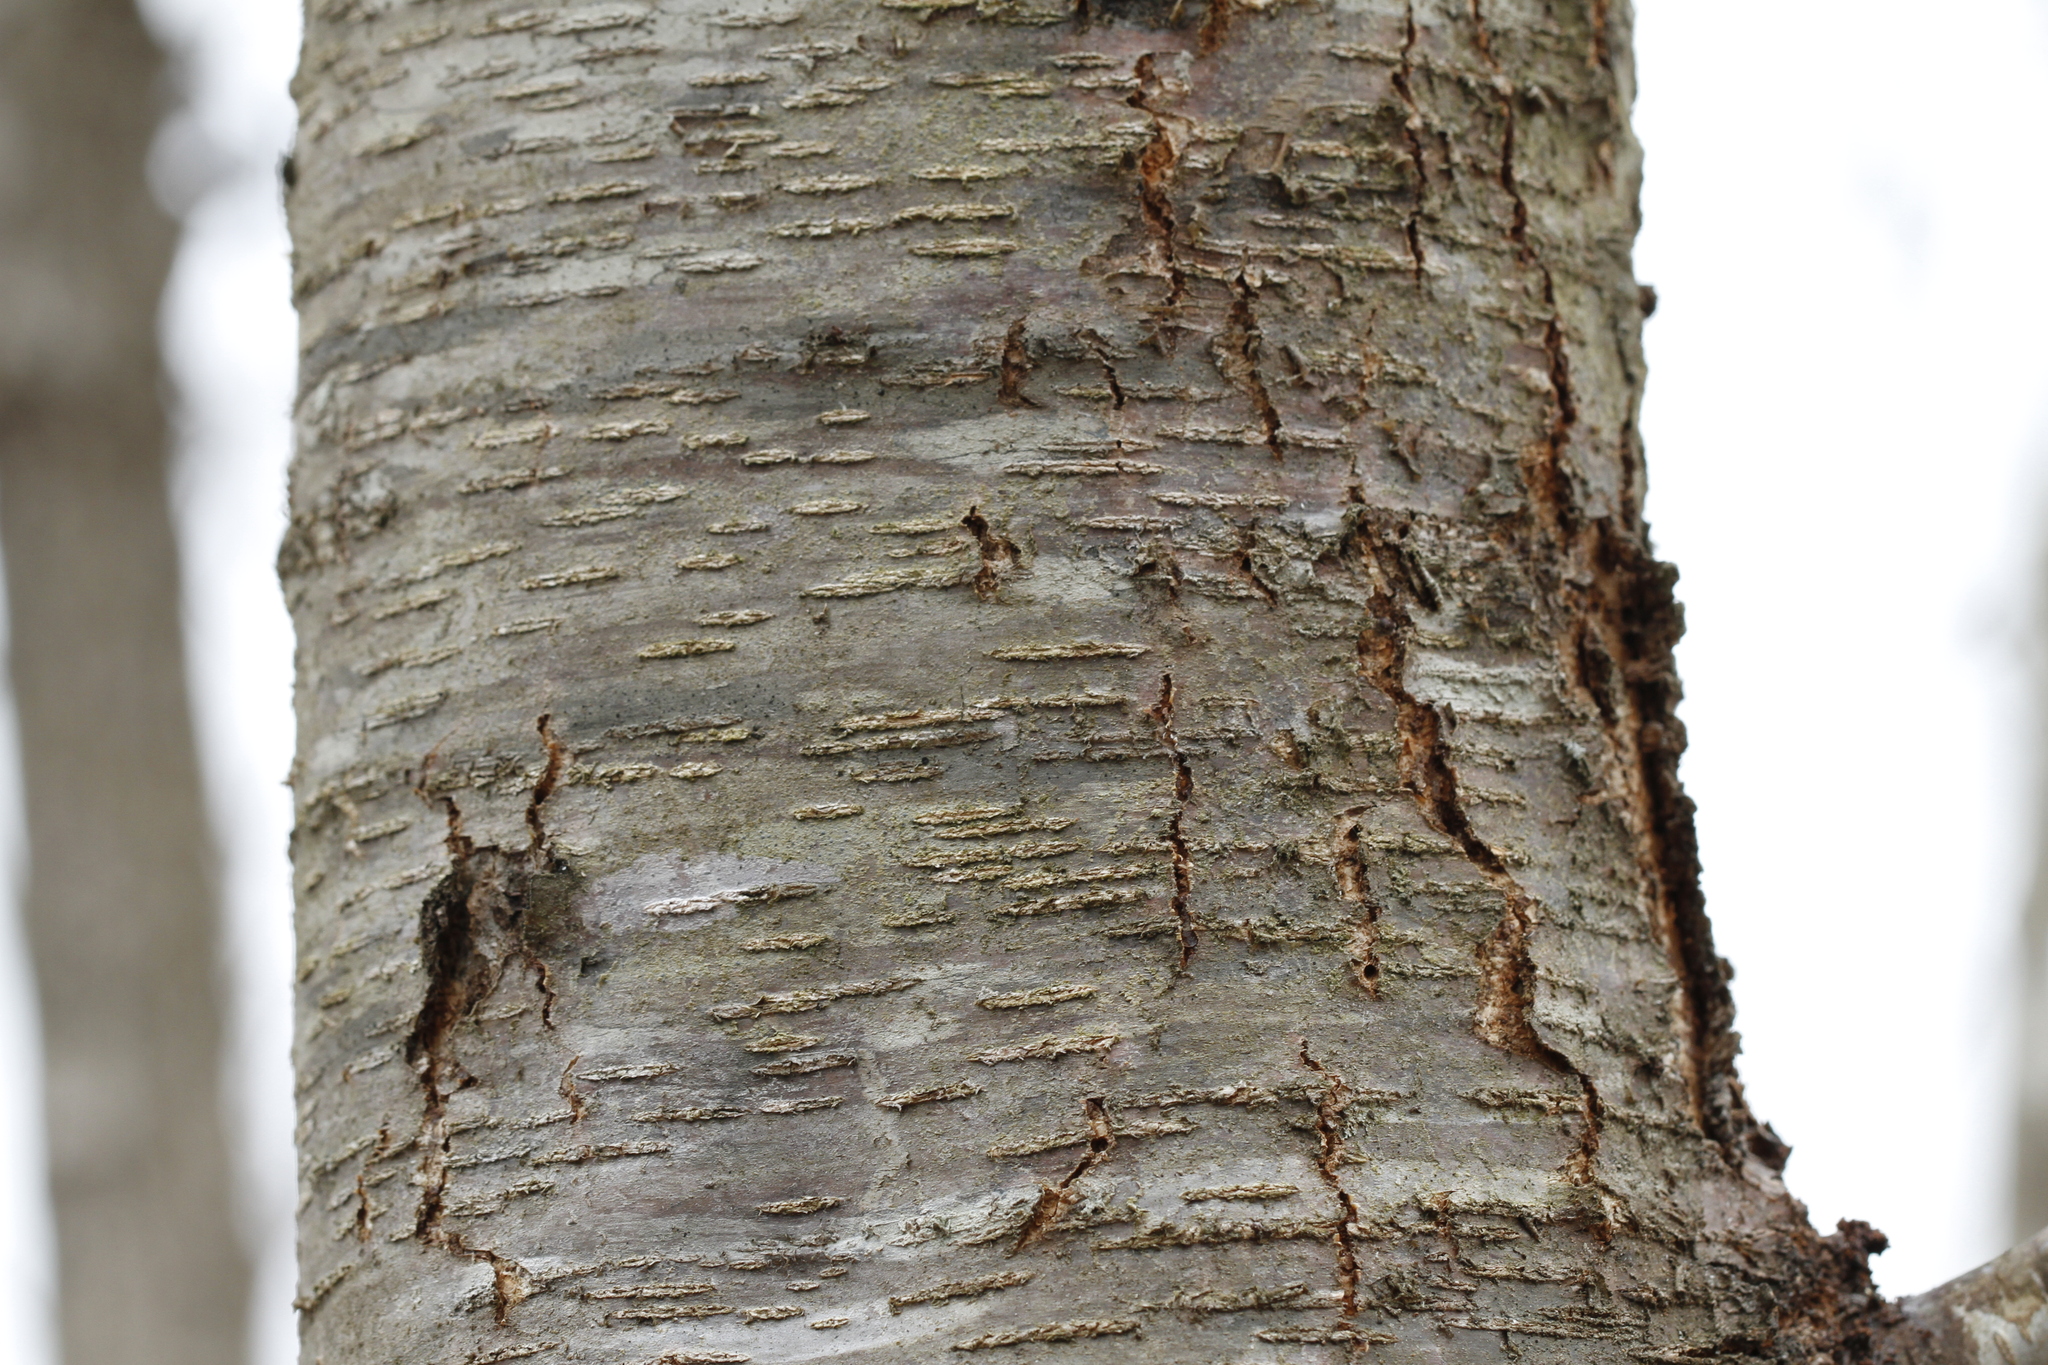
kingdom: Plantae
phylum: Tracheophyta
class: Magnoliopsida
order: Fagales
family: Betulaceae
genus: Betula
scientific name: Betula lenta
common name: Black birch
